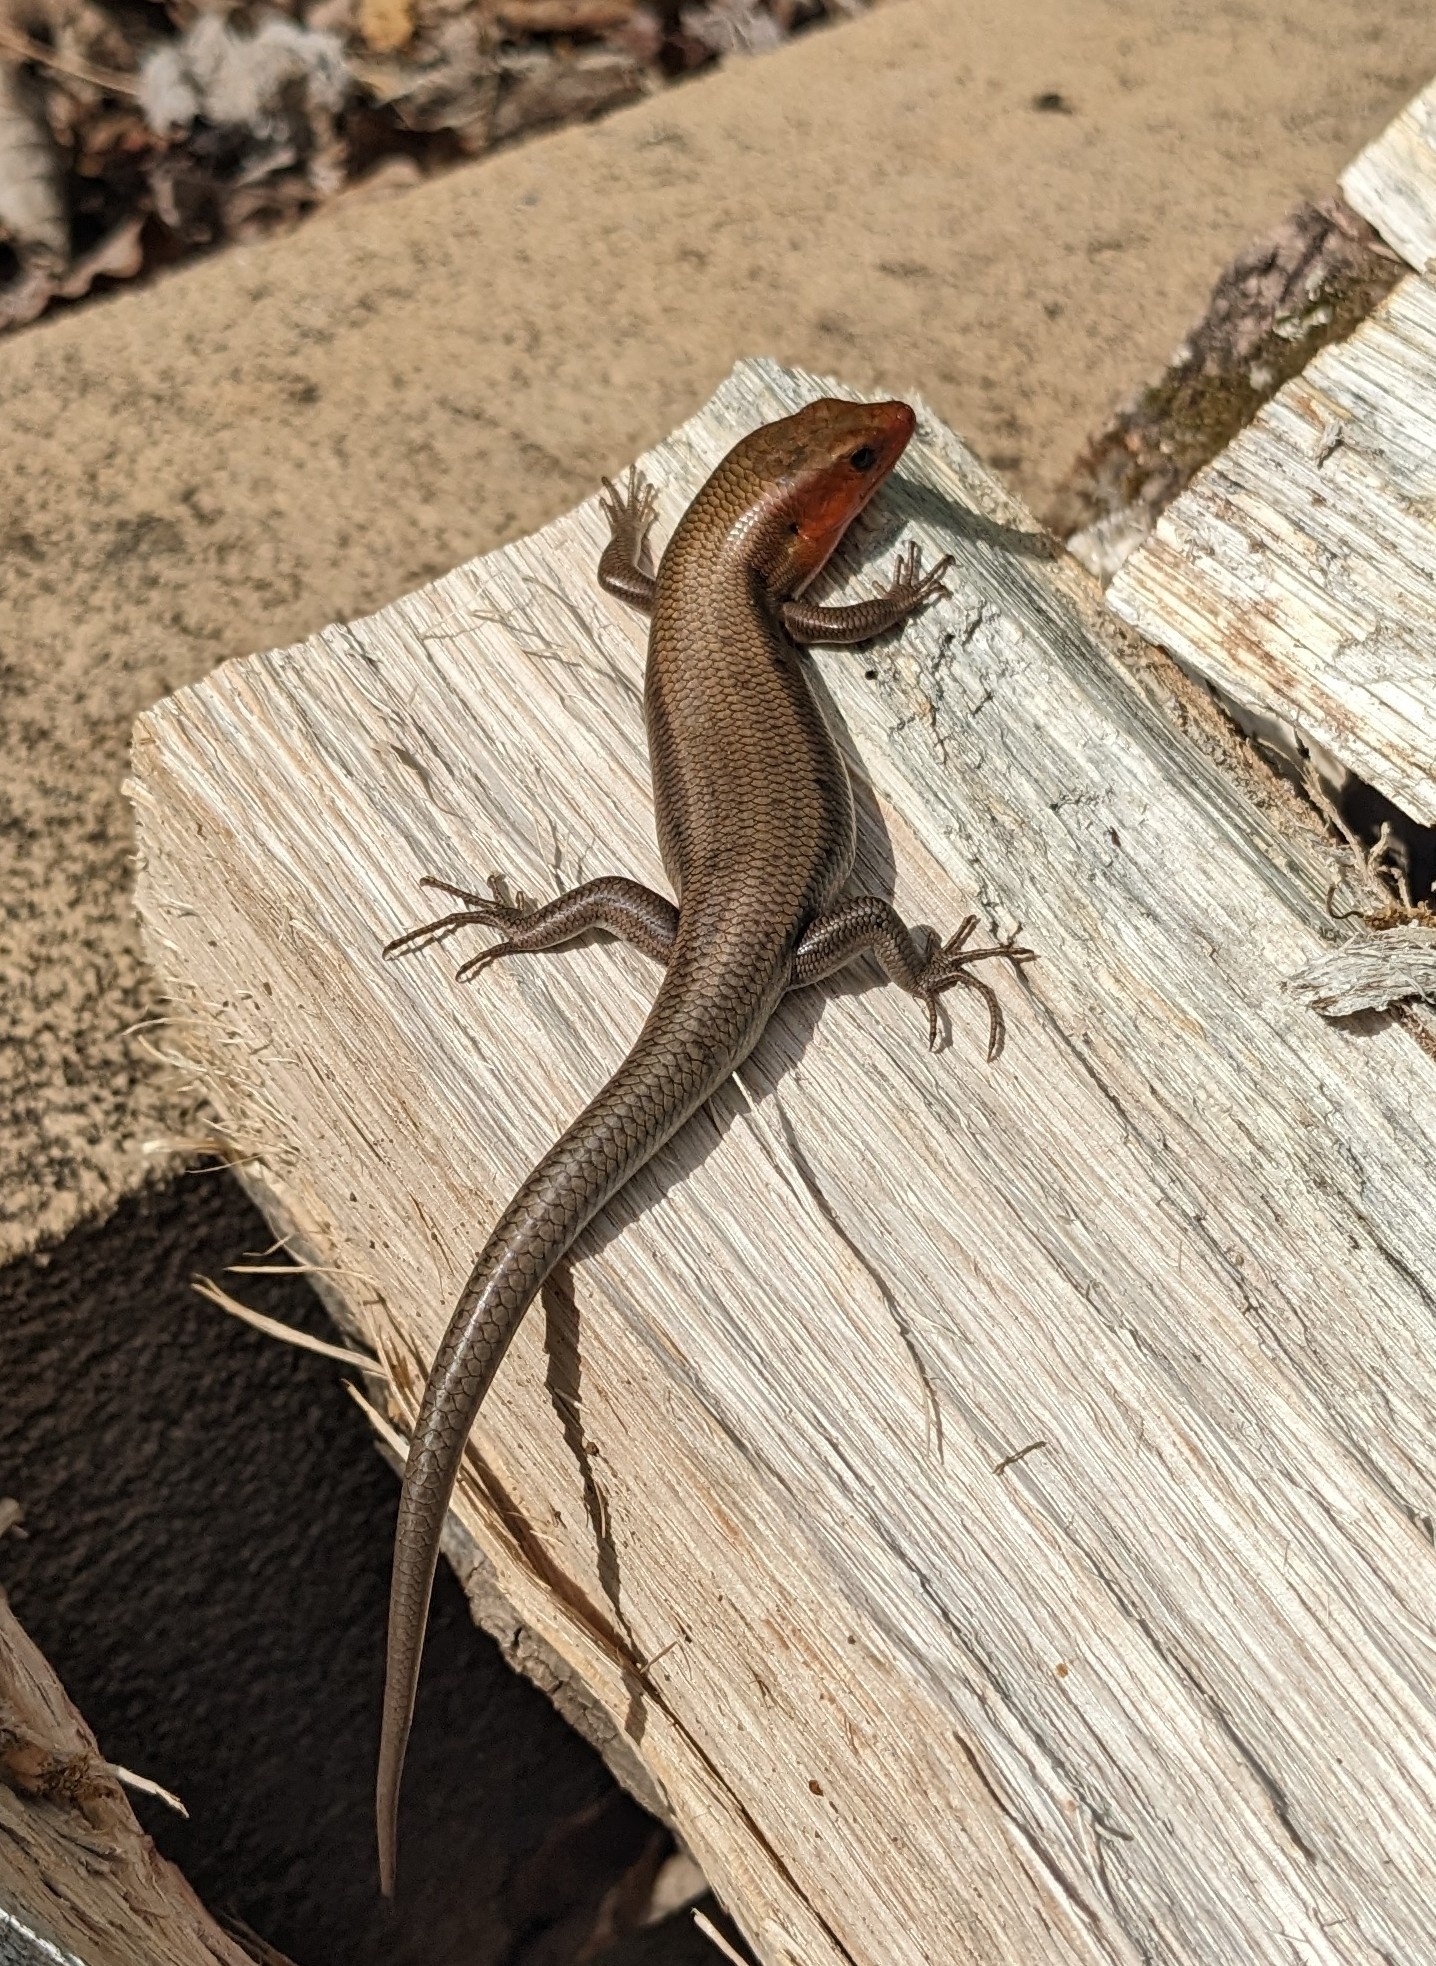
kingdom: Animalia
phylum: Chordata
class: Squamata
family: Scincidae
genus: Plestiodon
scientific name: Plestiodon fasciatus
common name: Five-lined skink
